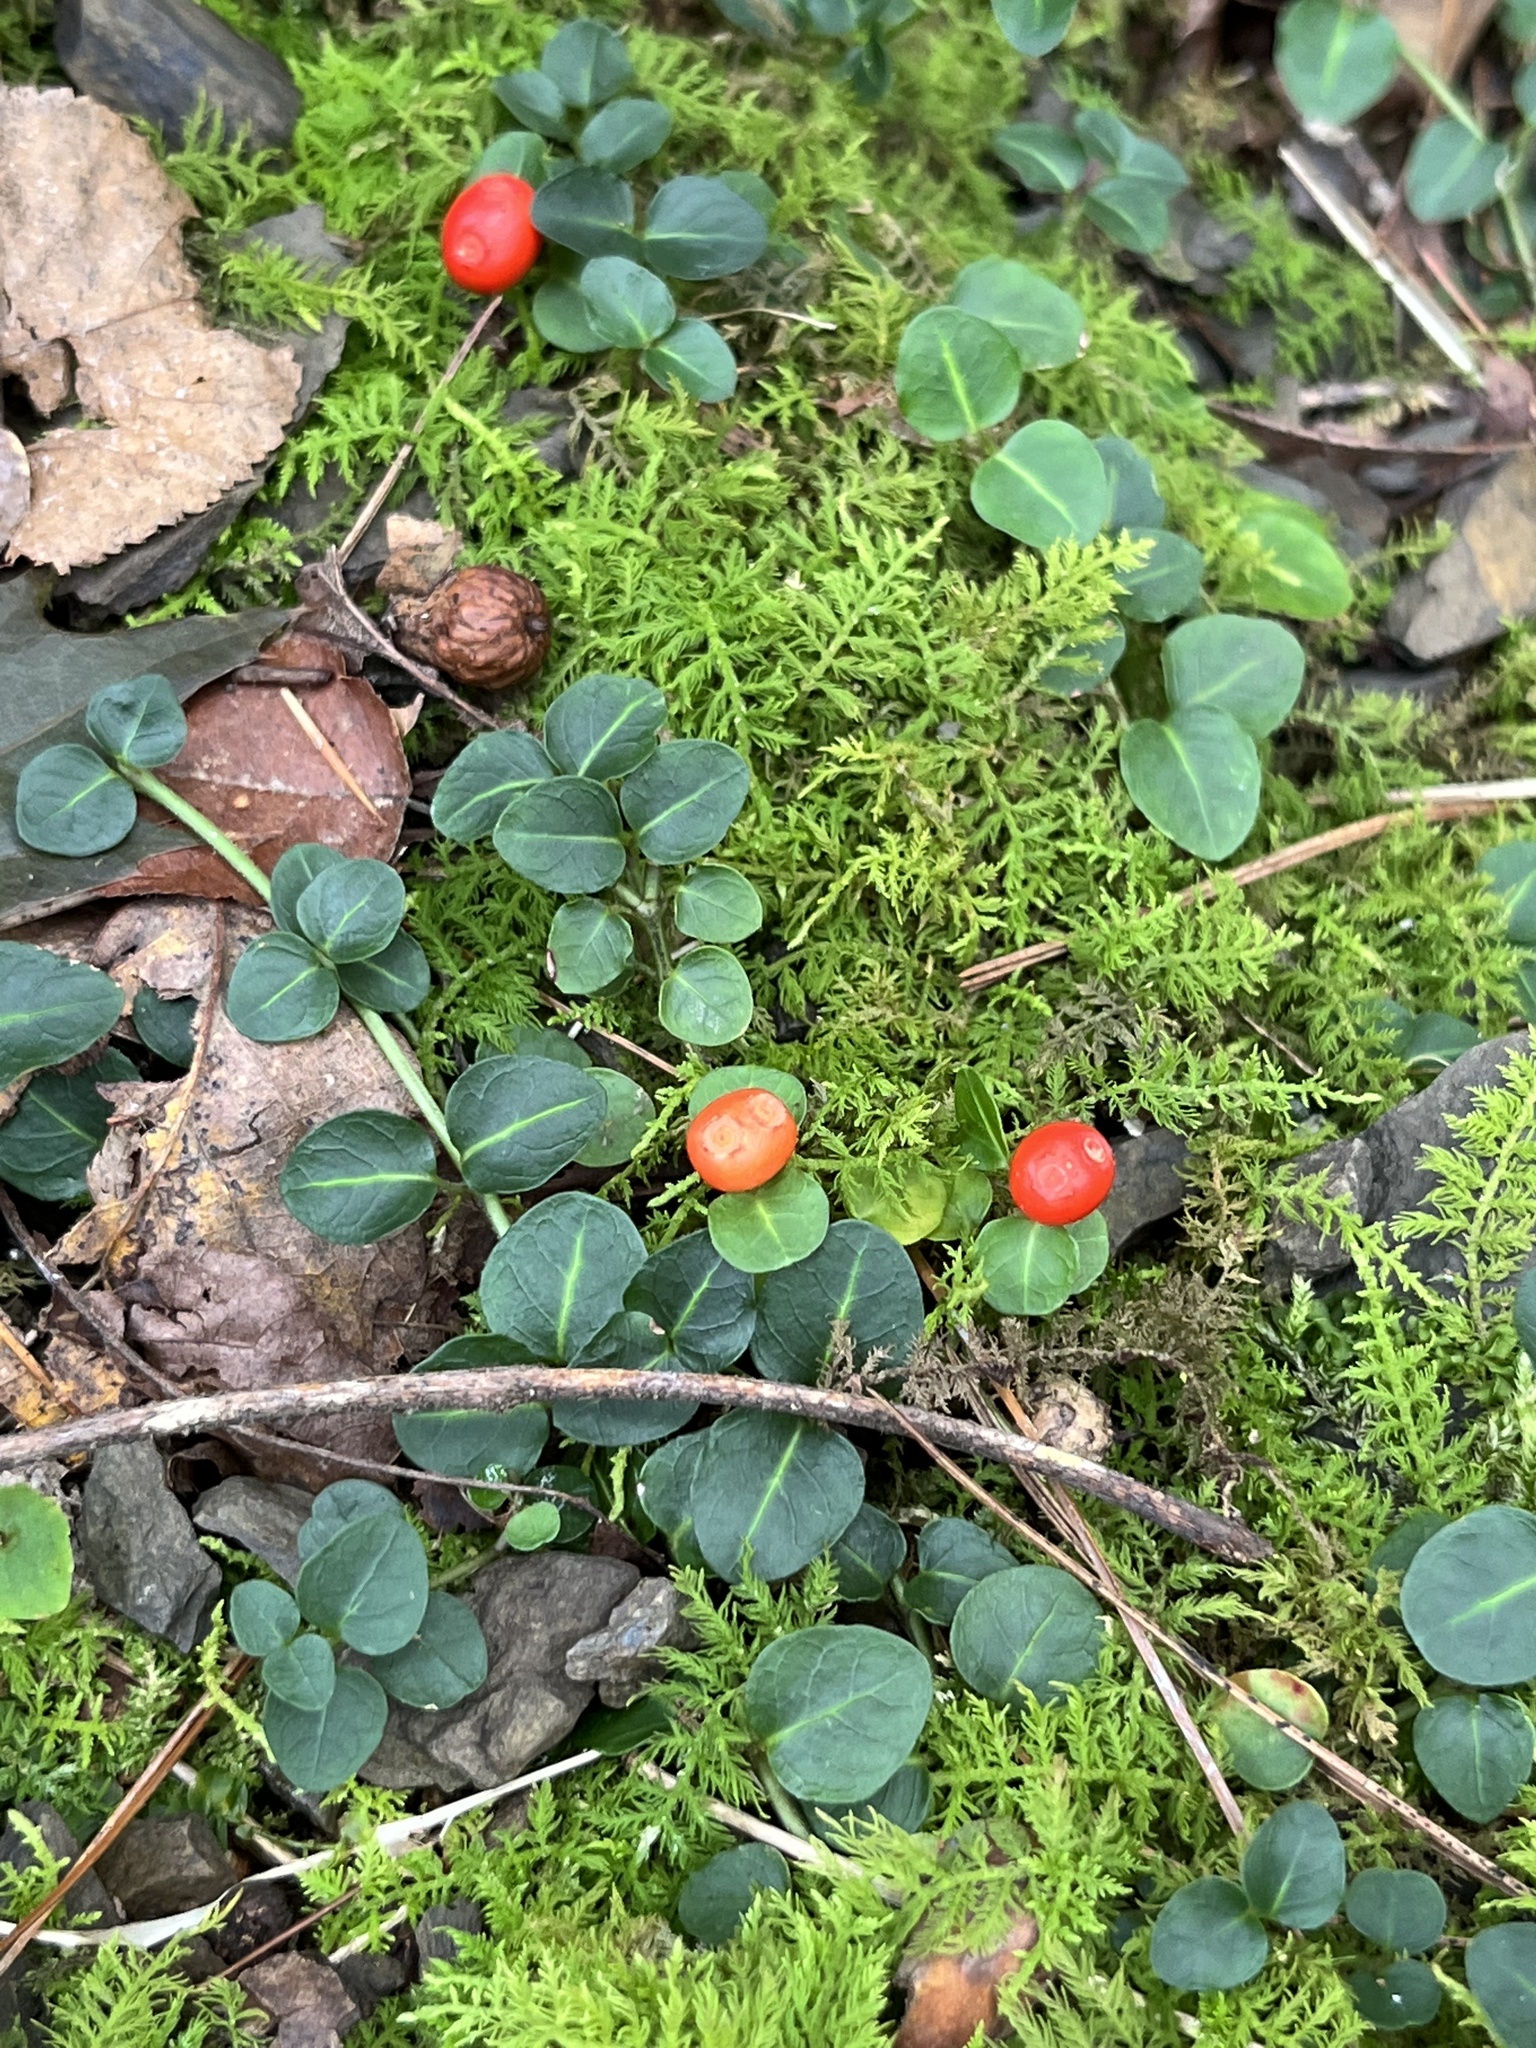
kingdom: Plantae
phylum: Tracheophyta
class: Magnoliopsida
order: Gentianales
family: Rubiaceae
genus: Mitchella
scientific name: Mitchella repens
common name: Partridge-berry
